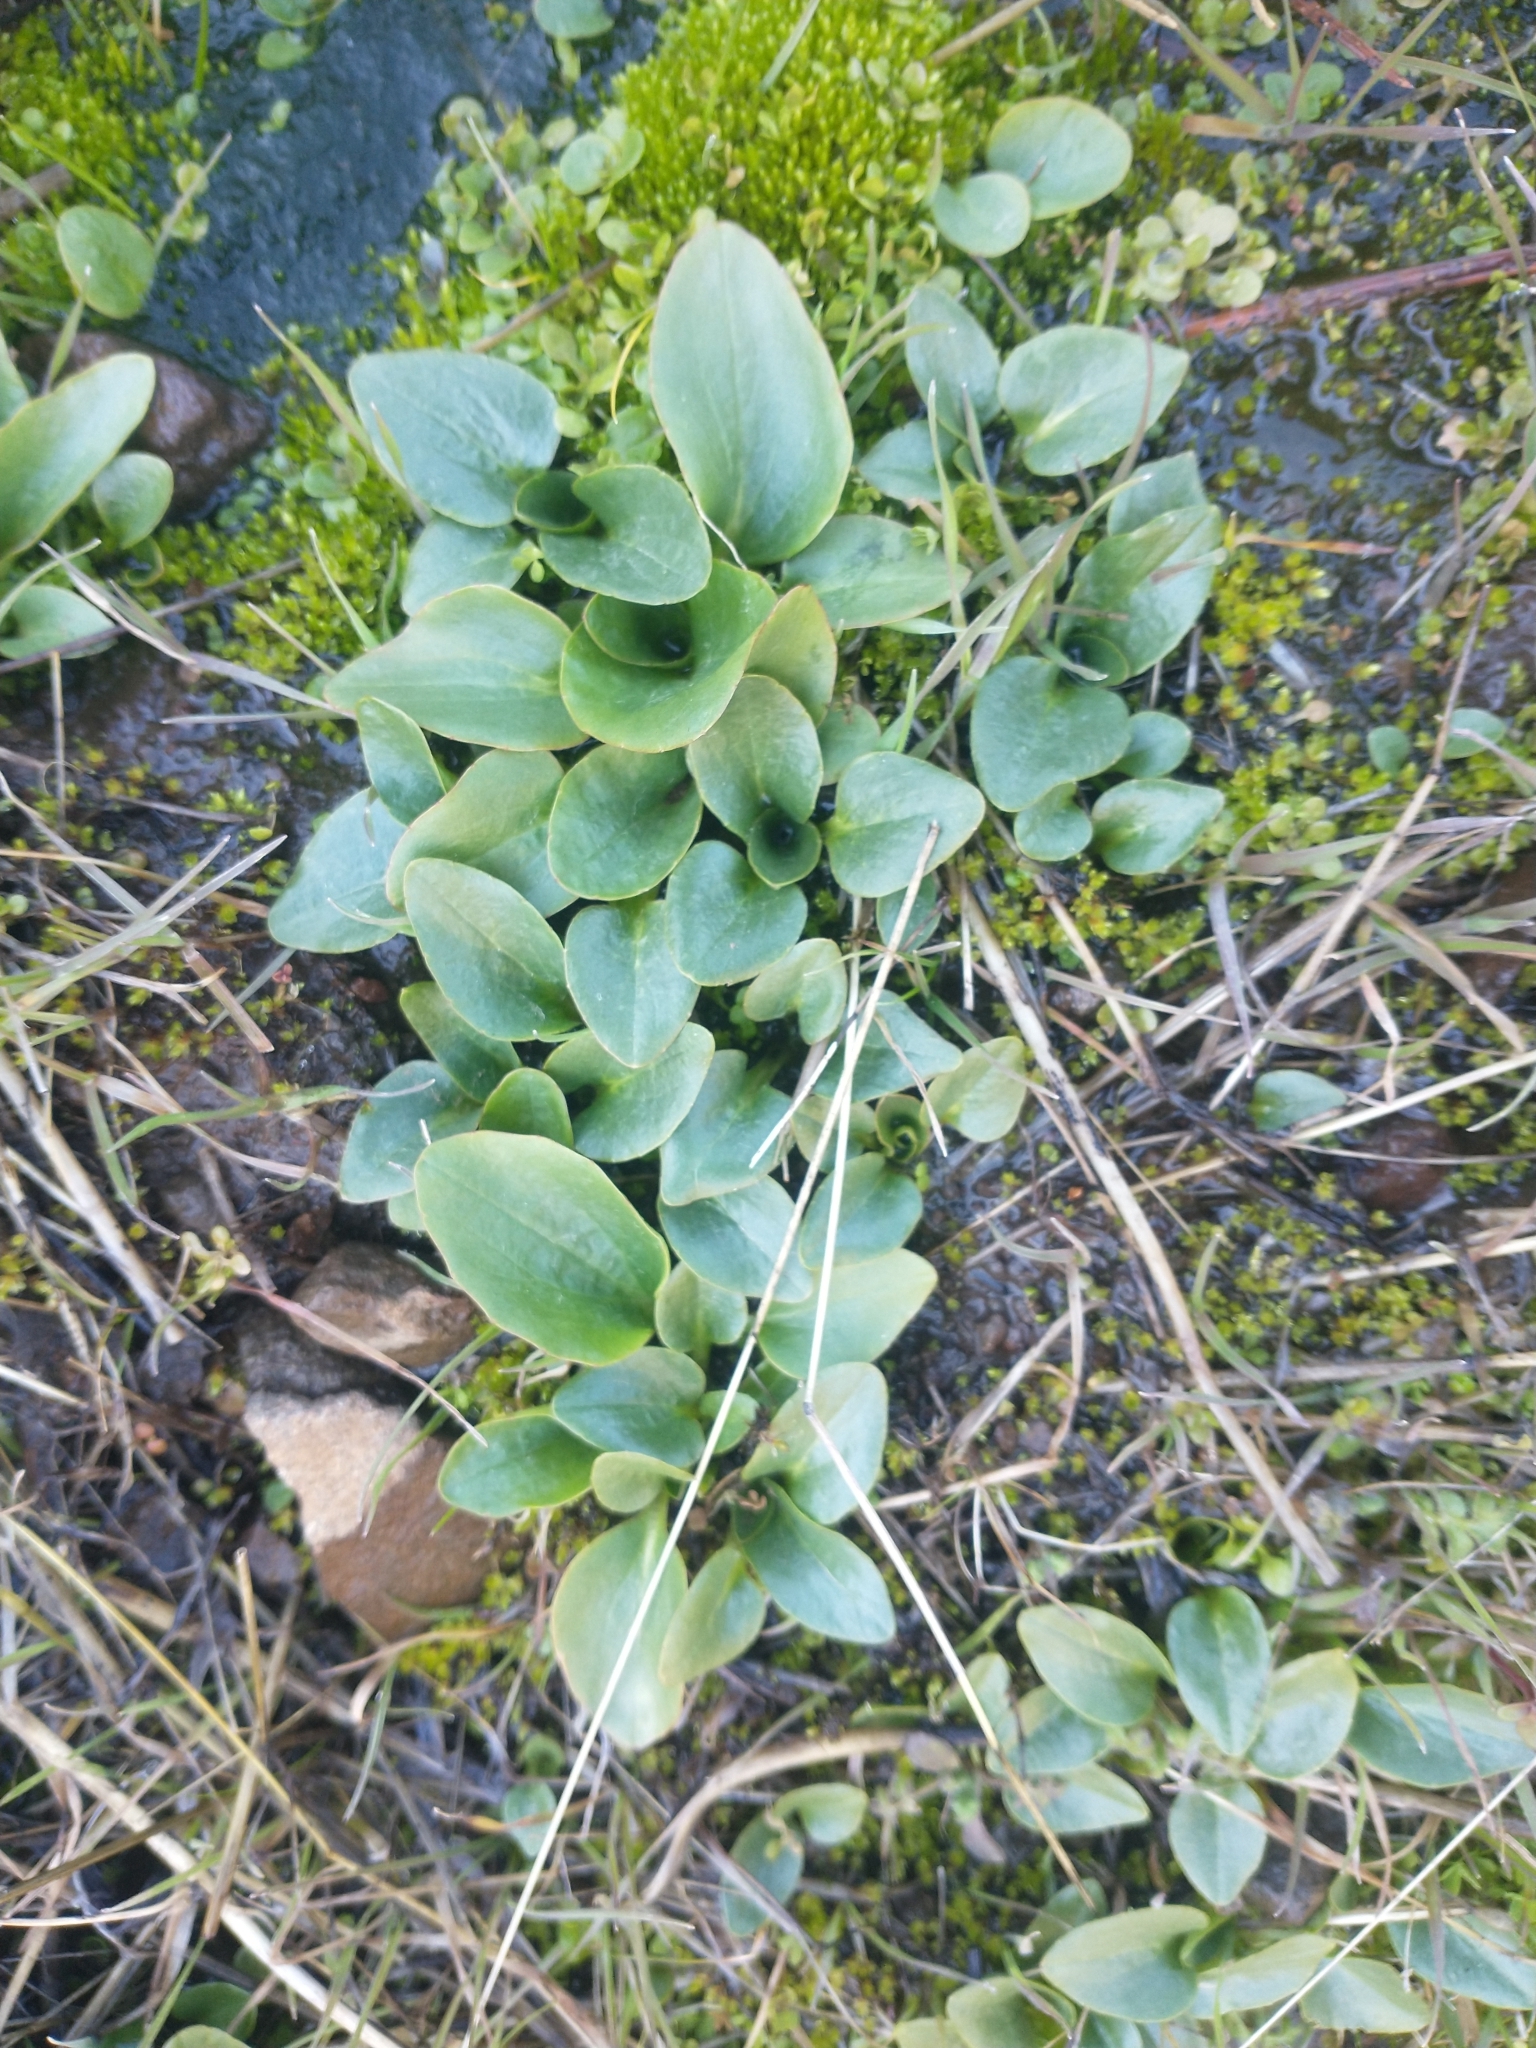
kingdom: Plantae
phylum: Tracheophyta
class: Magnoliopsida
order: Saxifragales
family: Saxifragaceae
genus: Micranthes
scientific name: Micranthes fragosa
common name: Peak saxifrage
